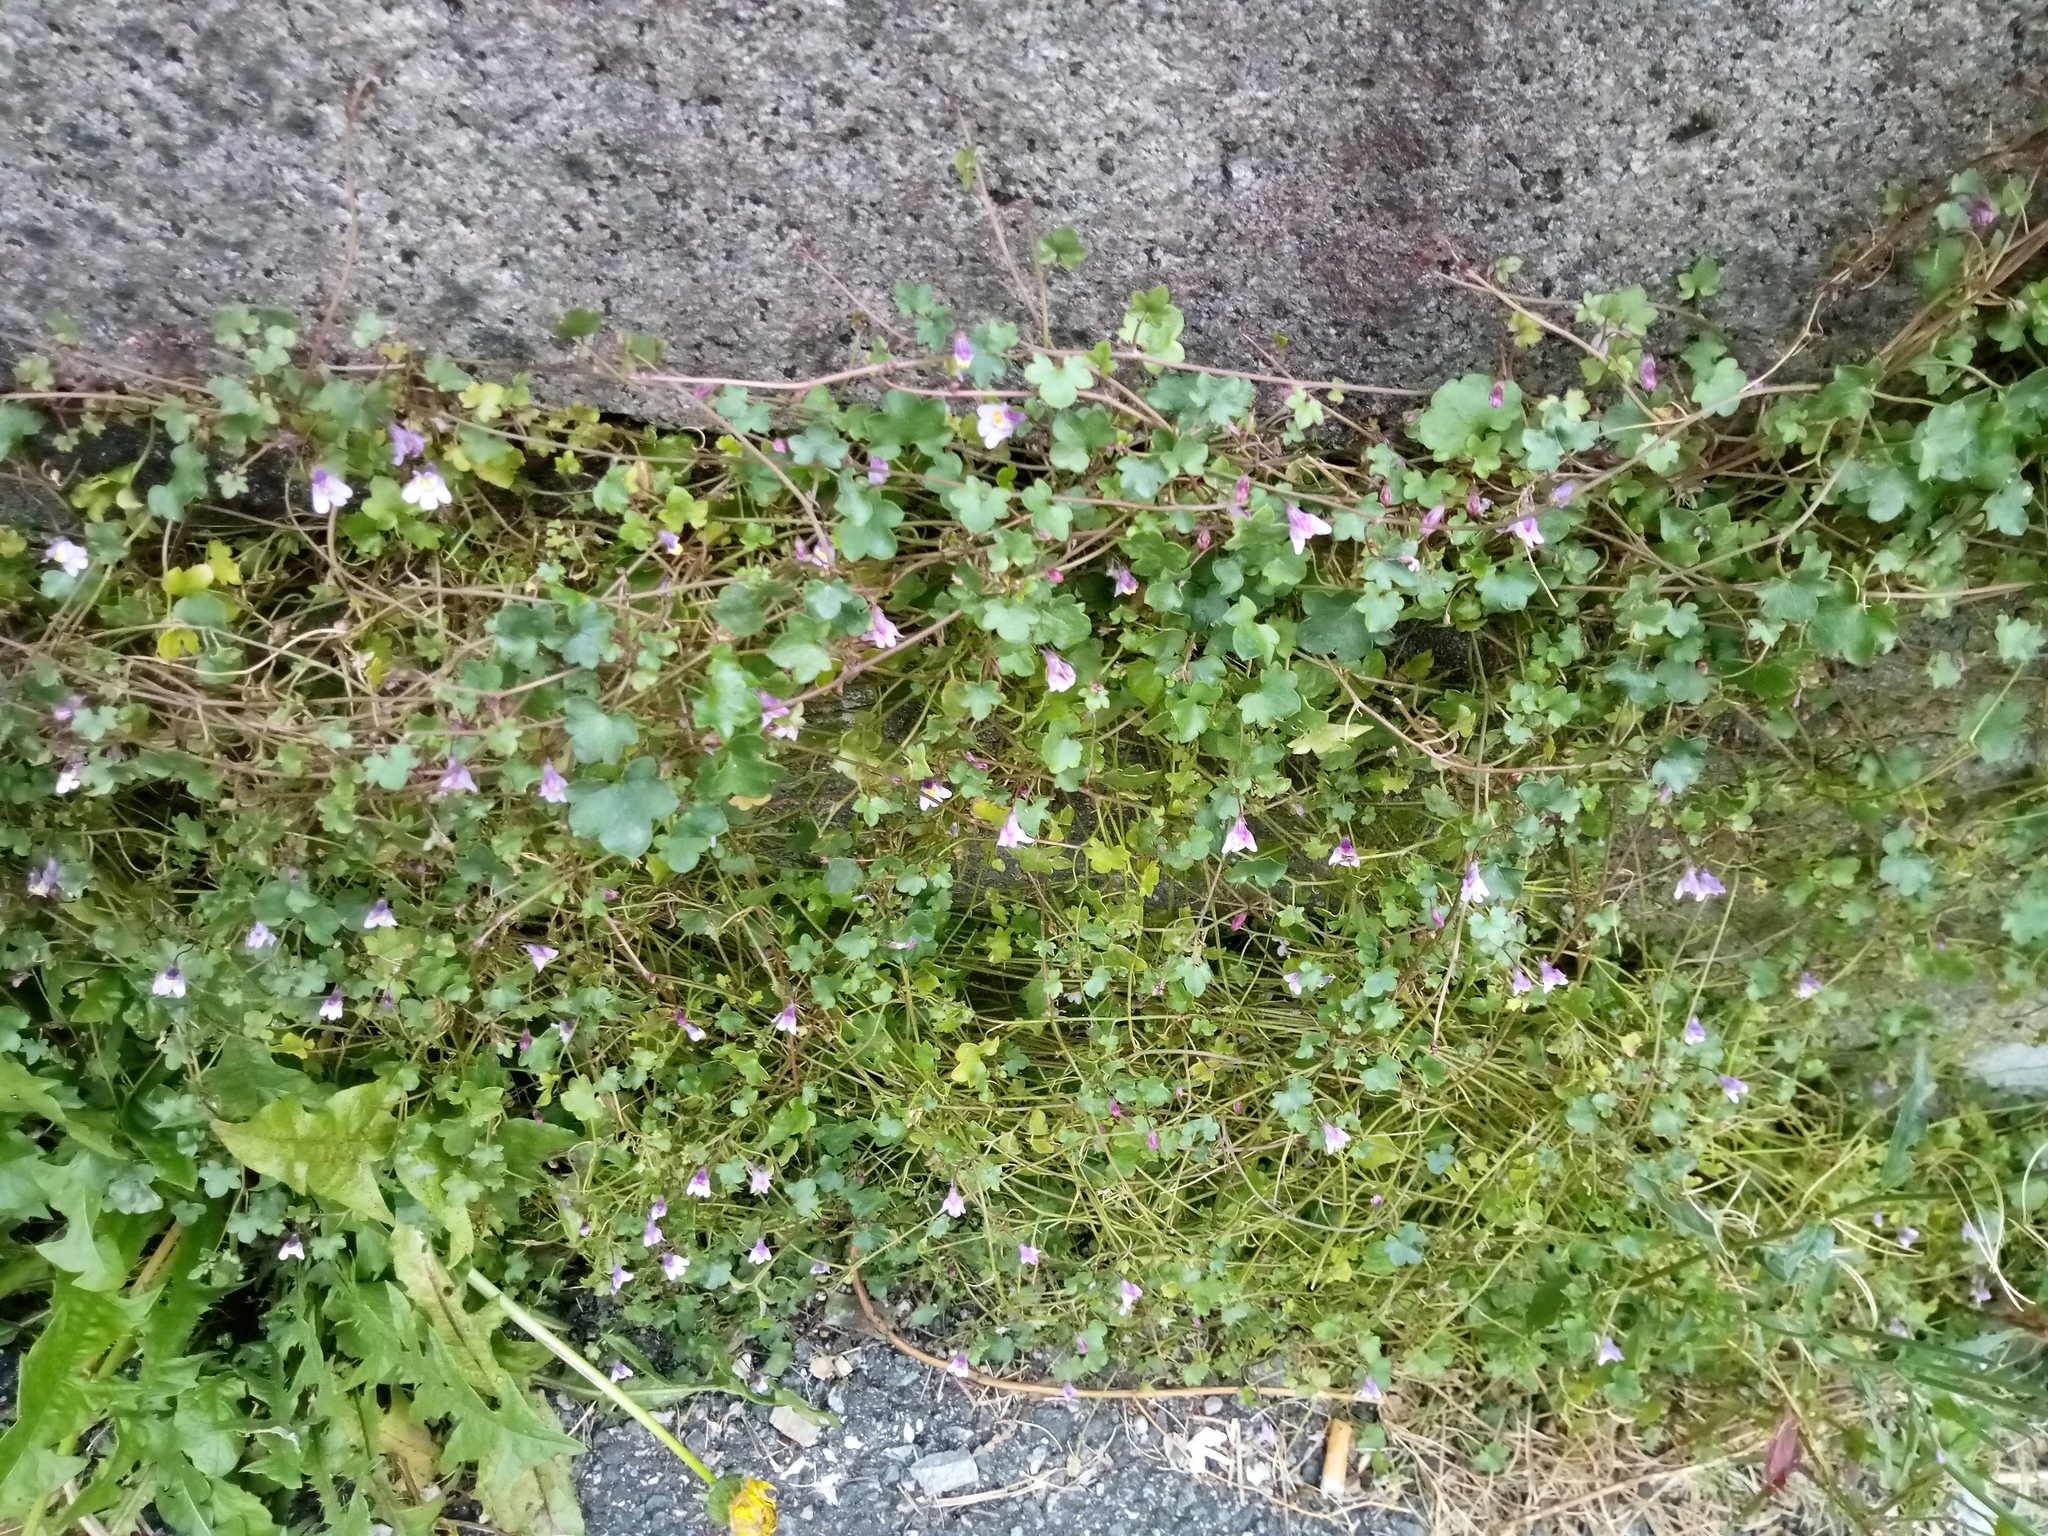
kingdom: Plantae
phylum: Tracheophyta
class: Magnoliopsida
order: Lamiales
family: Plantaginaceae
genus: Cymbalaria
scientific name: Cymbalaria muralis
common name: Ivy-leaved toadflax
